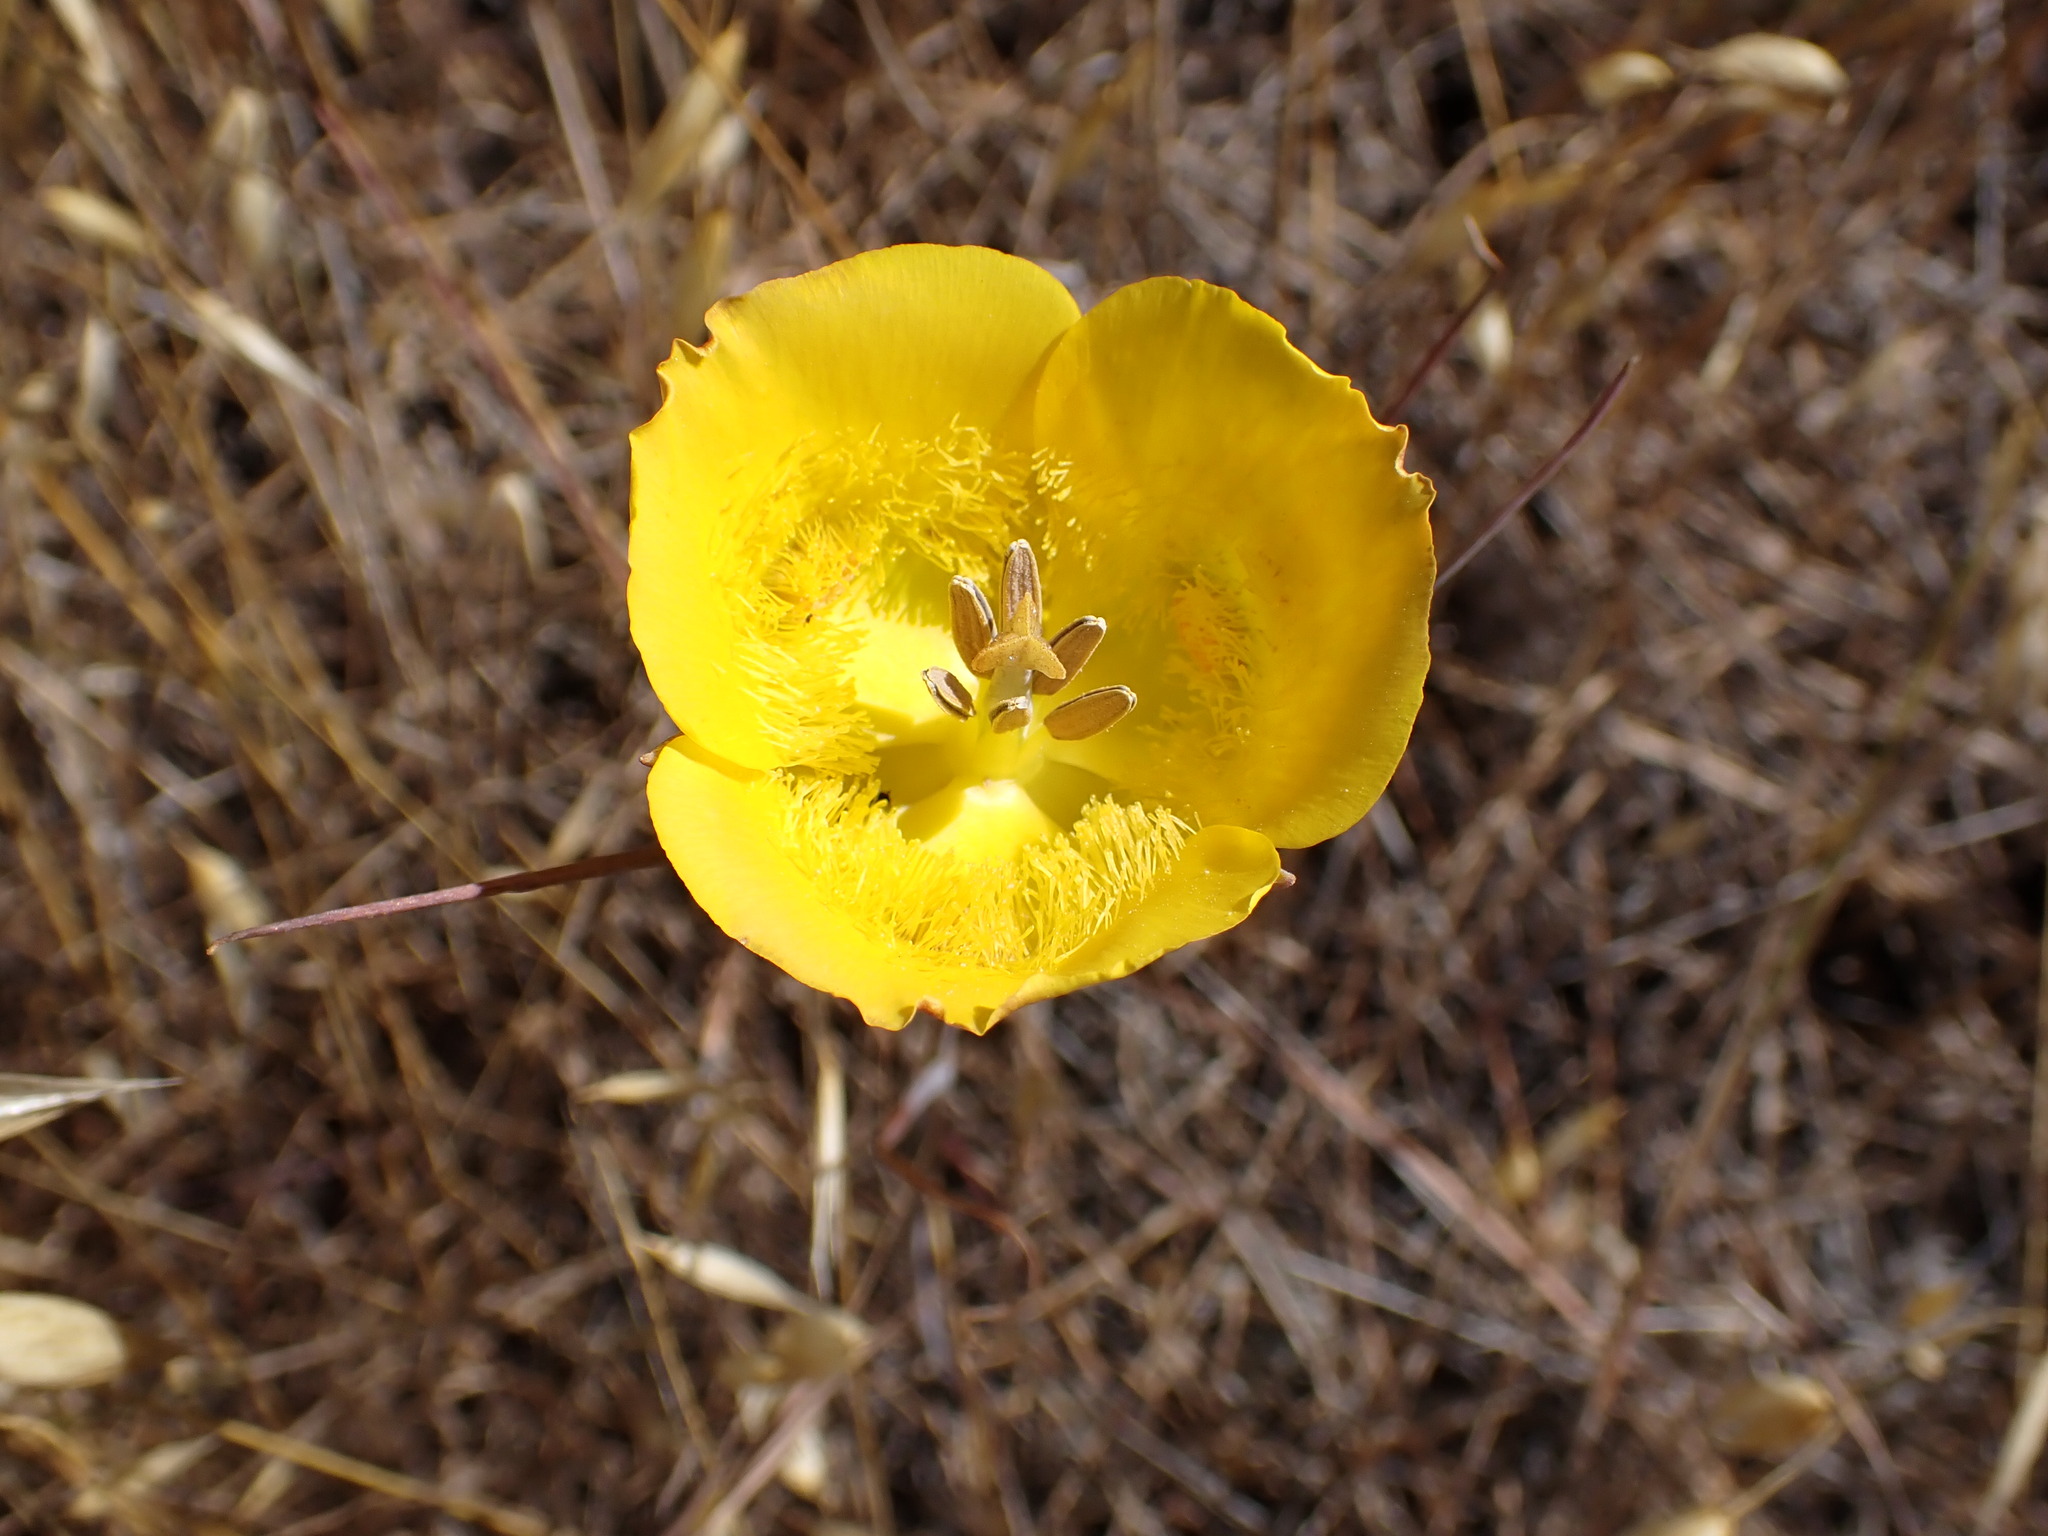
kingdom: Plantae
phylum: Tracheophyta
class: Liliopsida
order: Liliales
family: Liliaceae
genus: Calochortus
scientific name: Calochortus clavatus
